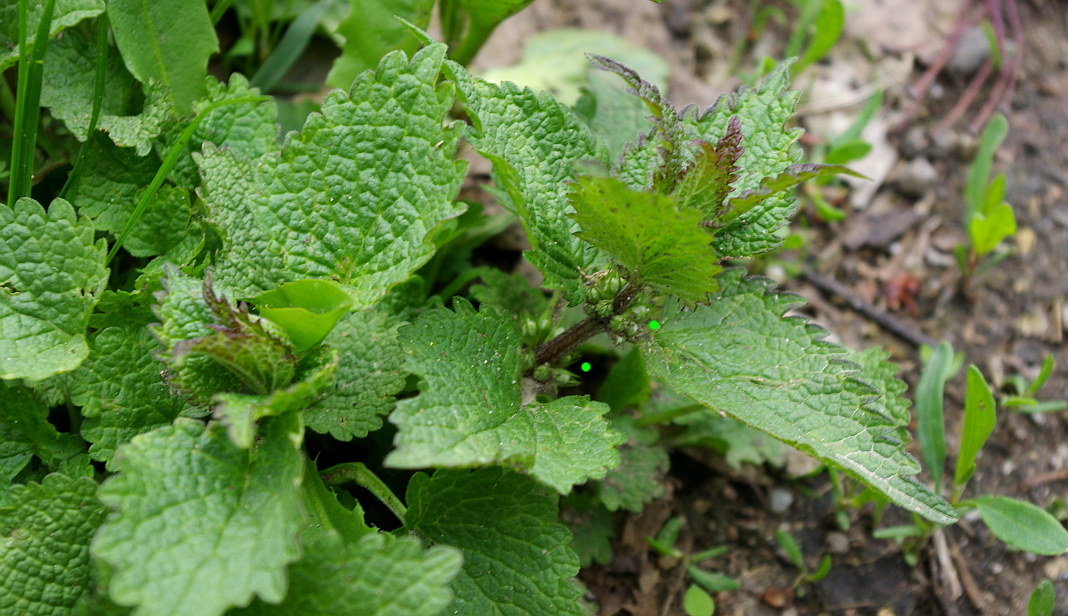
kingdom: Plantae
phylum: Tracheophyta
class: Magnoliopsida
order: Lamiales
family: Lamiaceae
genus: Lamium
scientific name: Lamium album
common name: White dead-nettle
